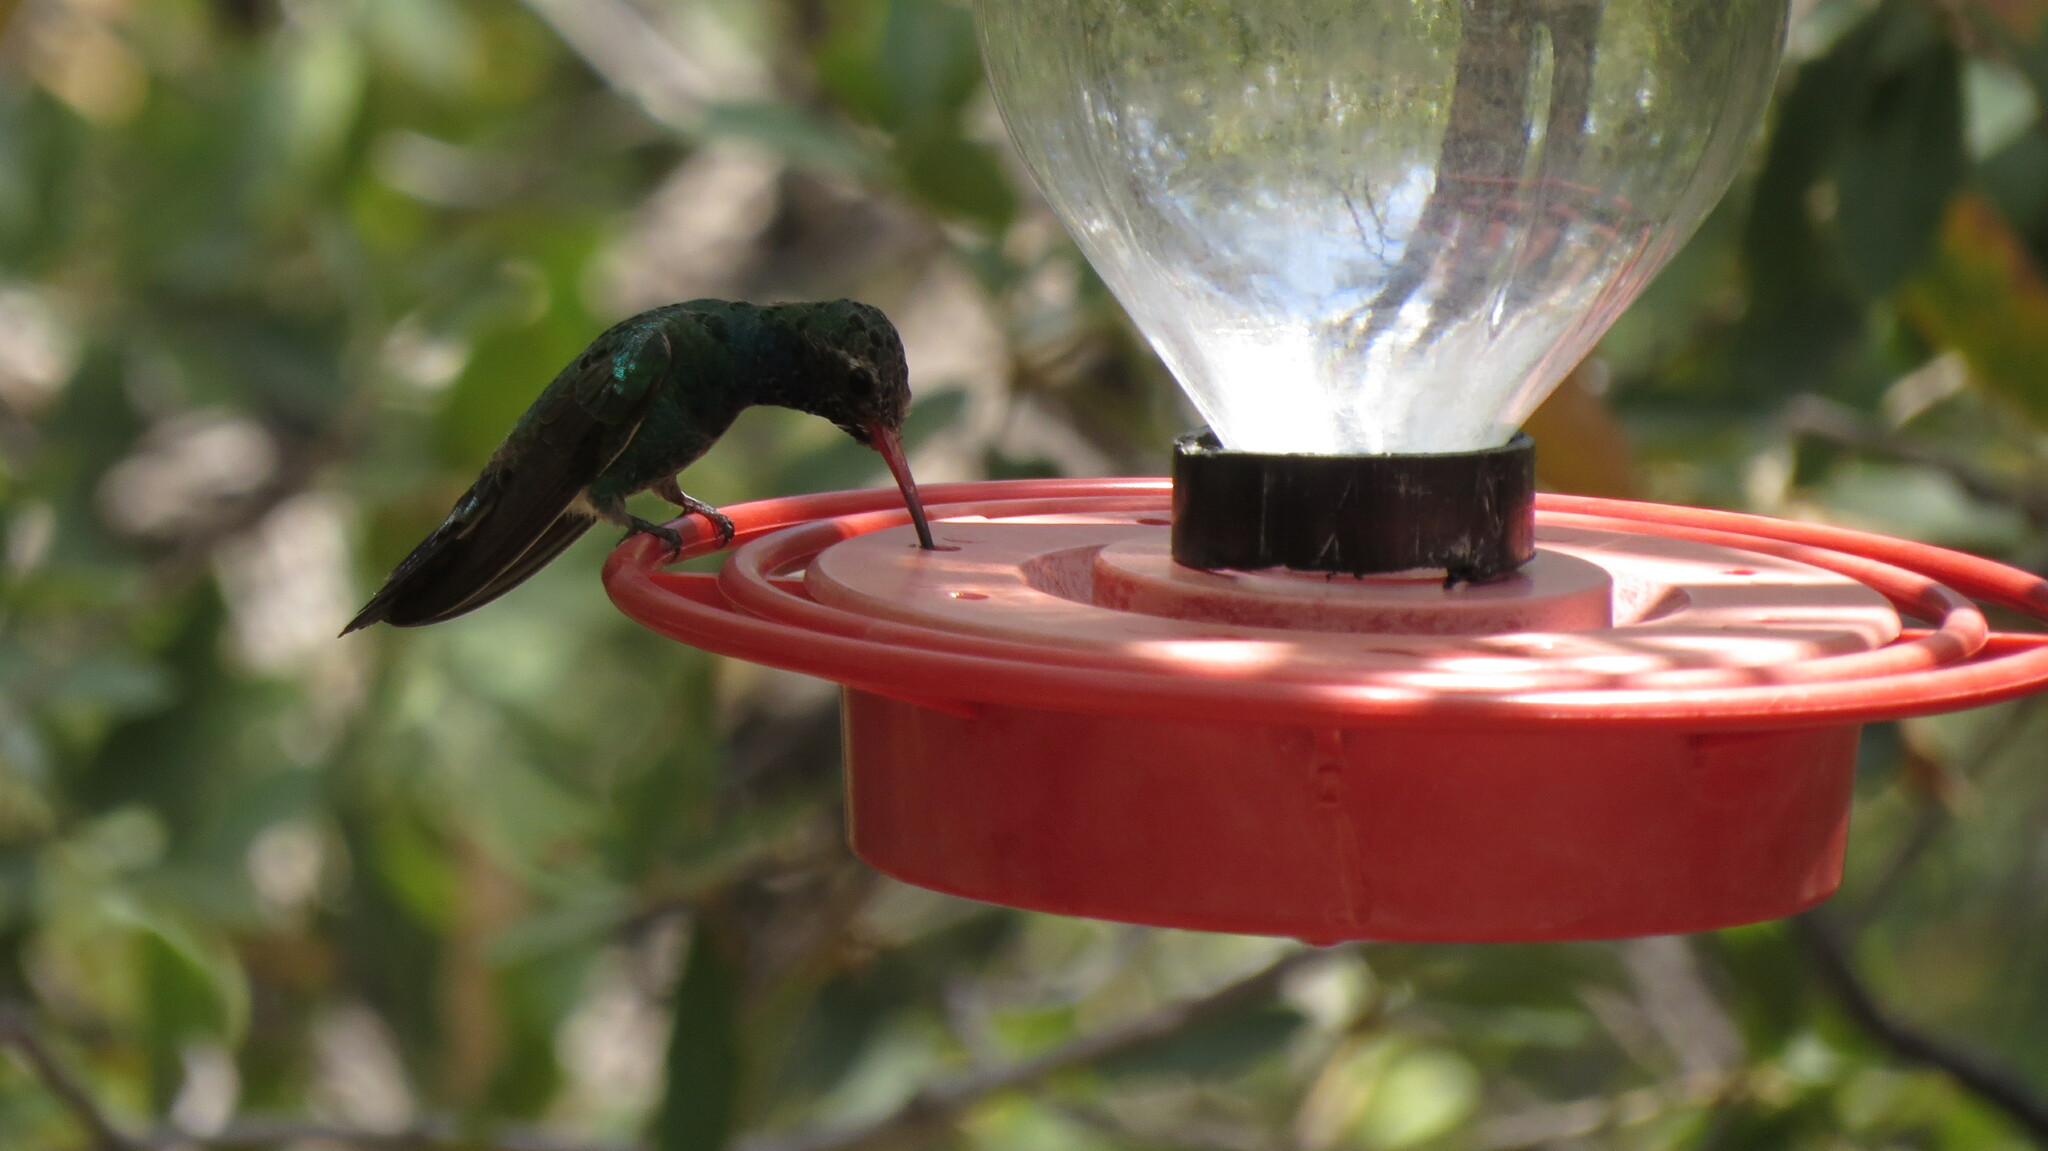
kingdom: Animalia
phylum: Chordata
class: Aves
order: Apodiformes
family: Trochilidae
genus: Cynanthus
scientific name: Cynanthus latirostris
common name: Broad-billed hummingbird
